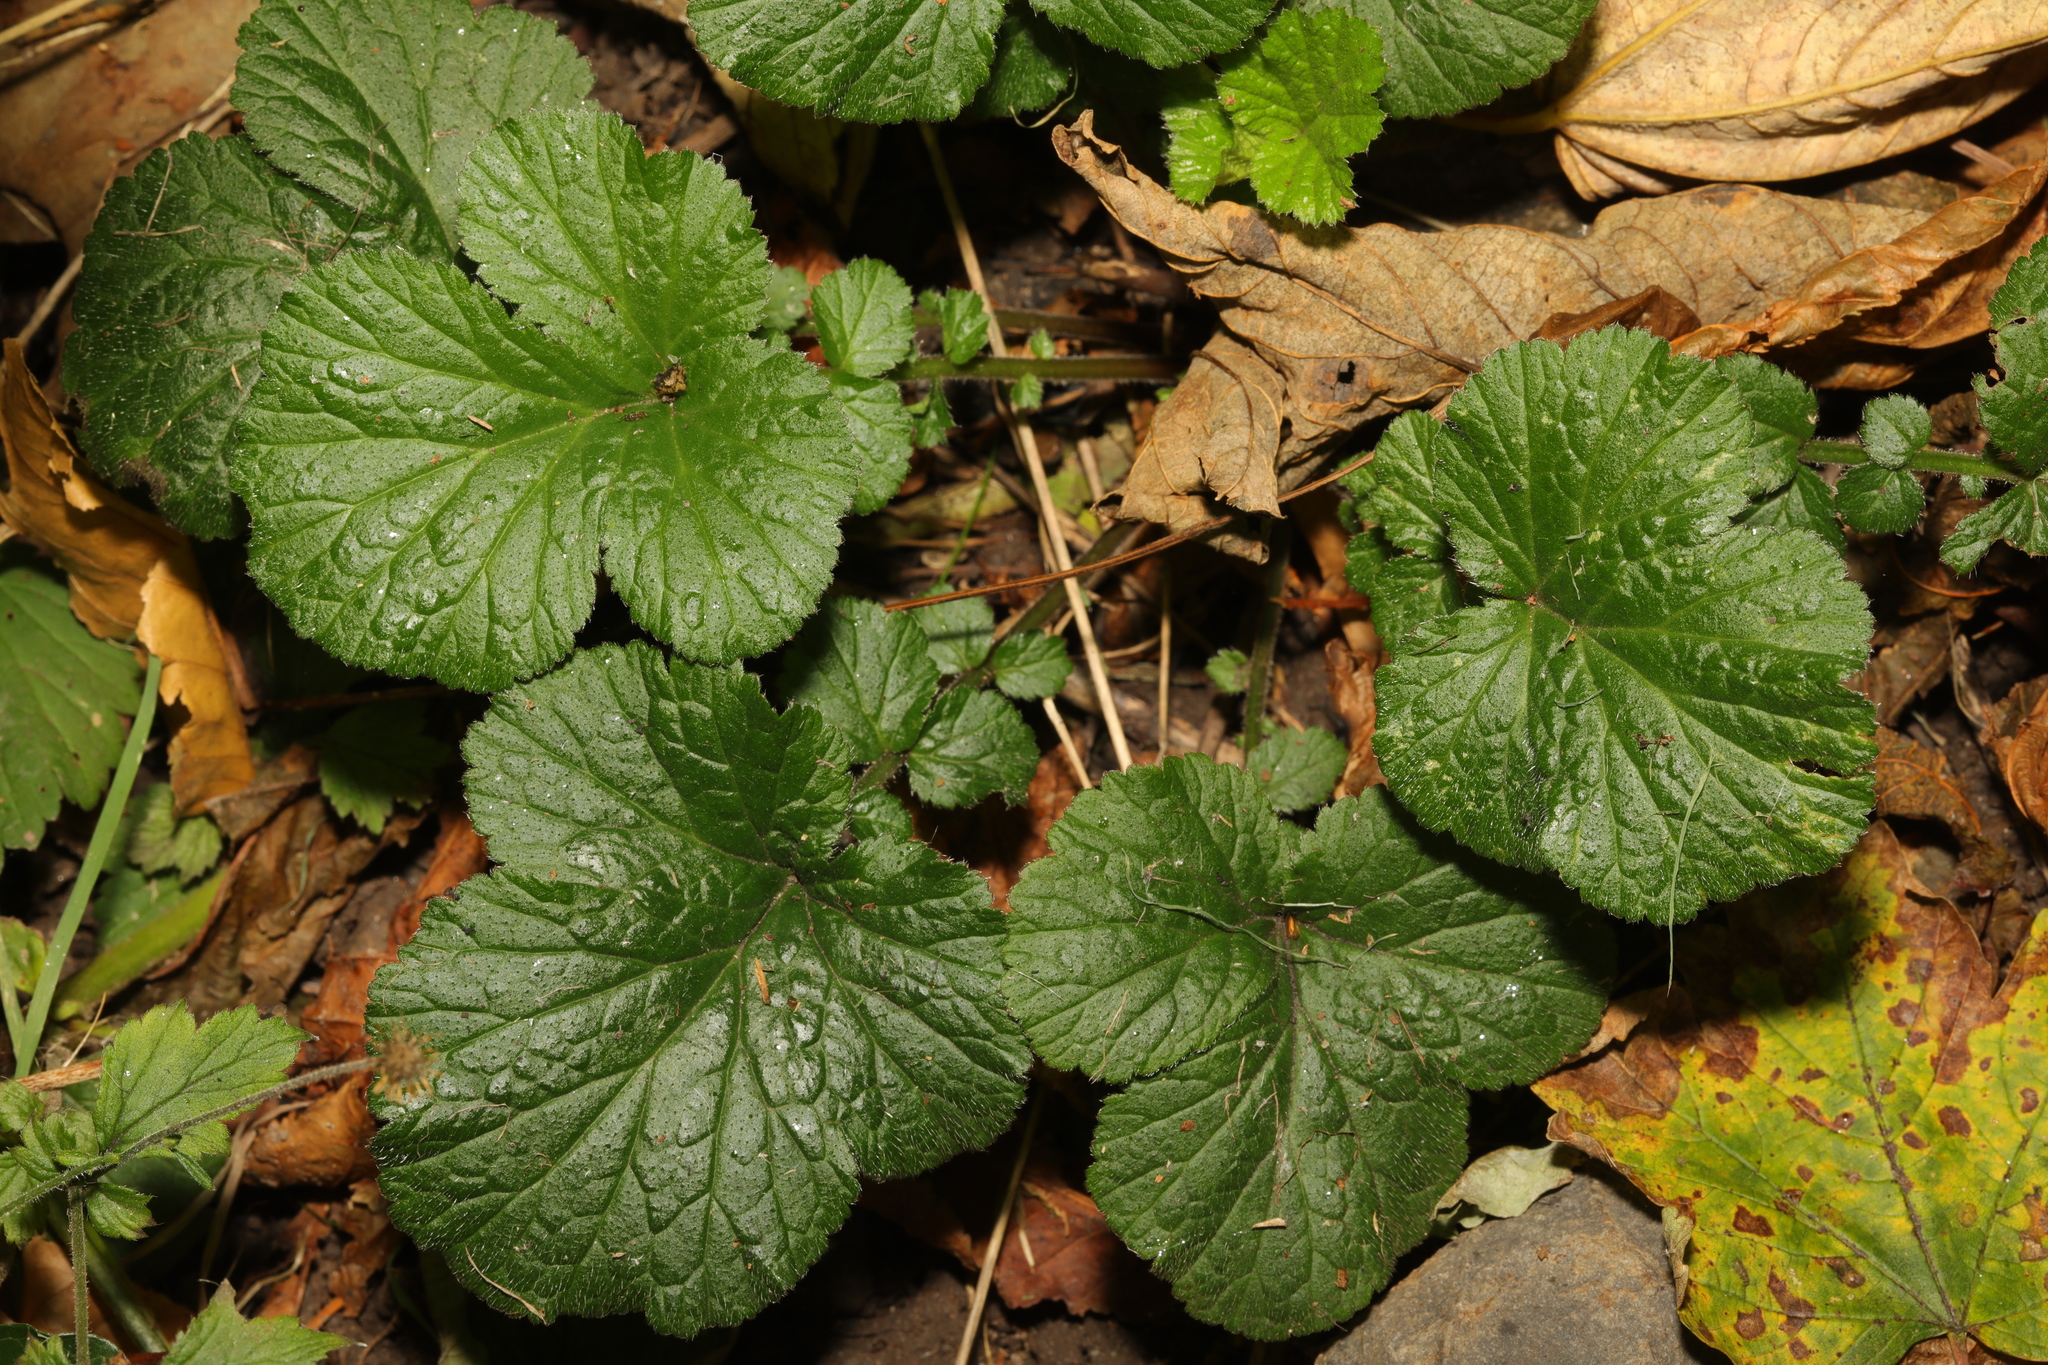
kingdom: Plantae
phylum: Tracheophyta
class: Magnoliopsida
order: Rosales
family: Rosaceae
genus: Geum
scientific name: Geum urbanum
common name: Wood avens
